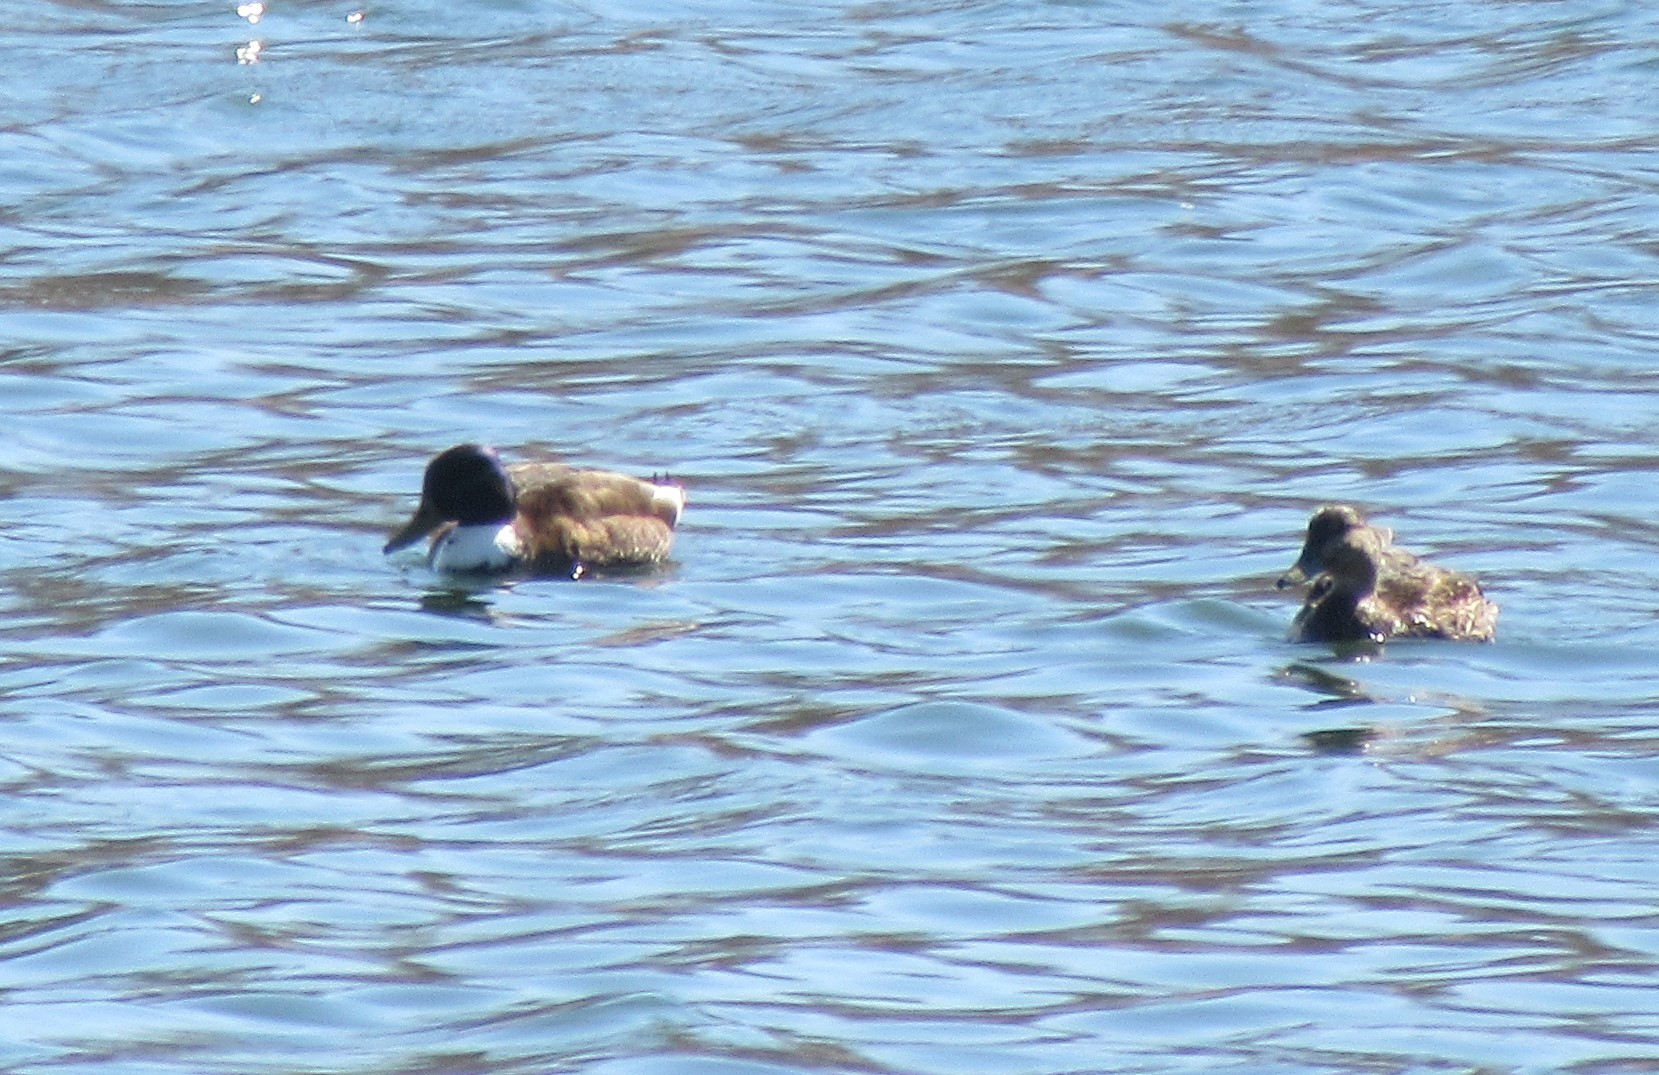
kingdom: Animalia
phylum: Chordata
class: Aves
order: Anseriformes
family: Anatidae
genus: Anas
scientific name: Anas platyrhynchos
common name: Mallard
